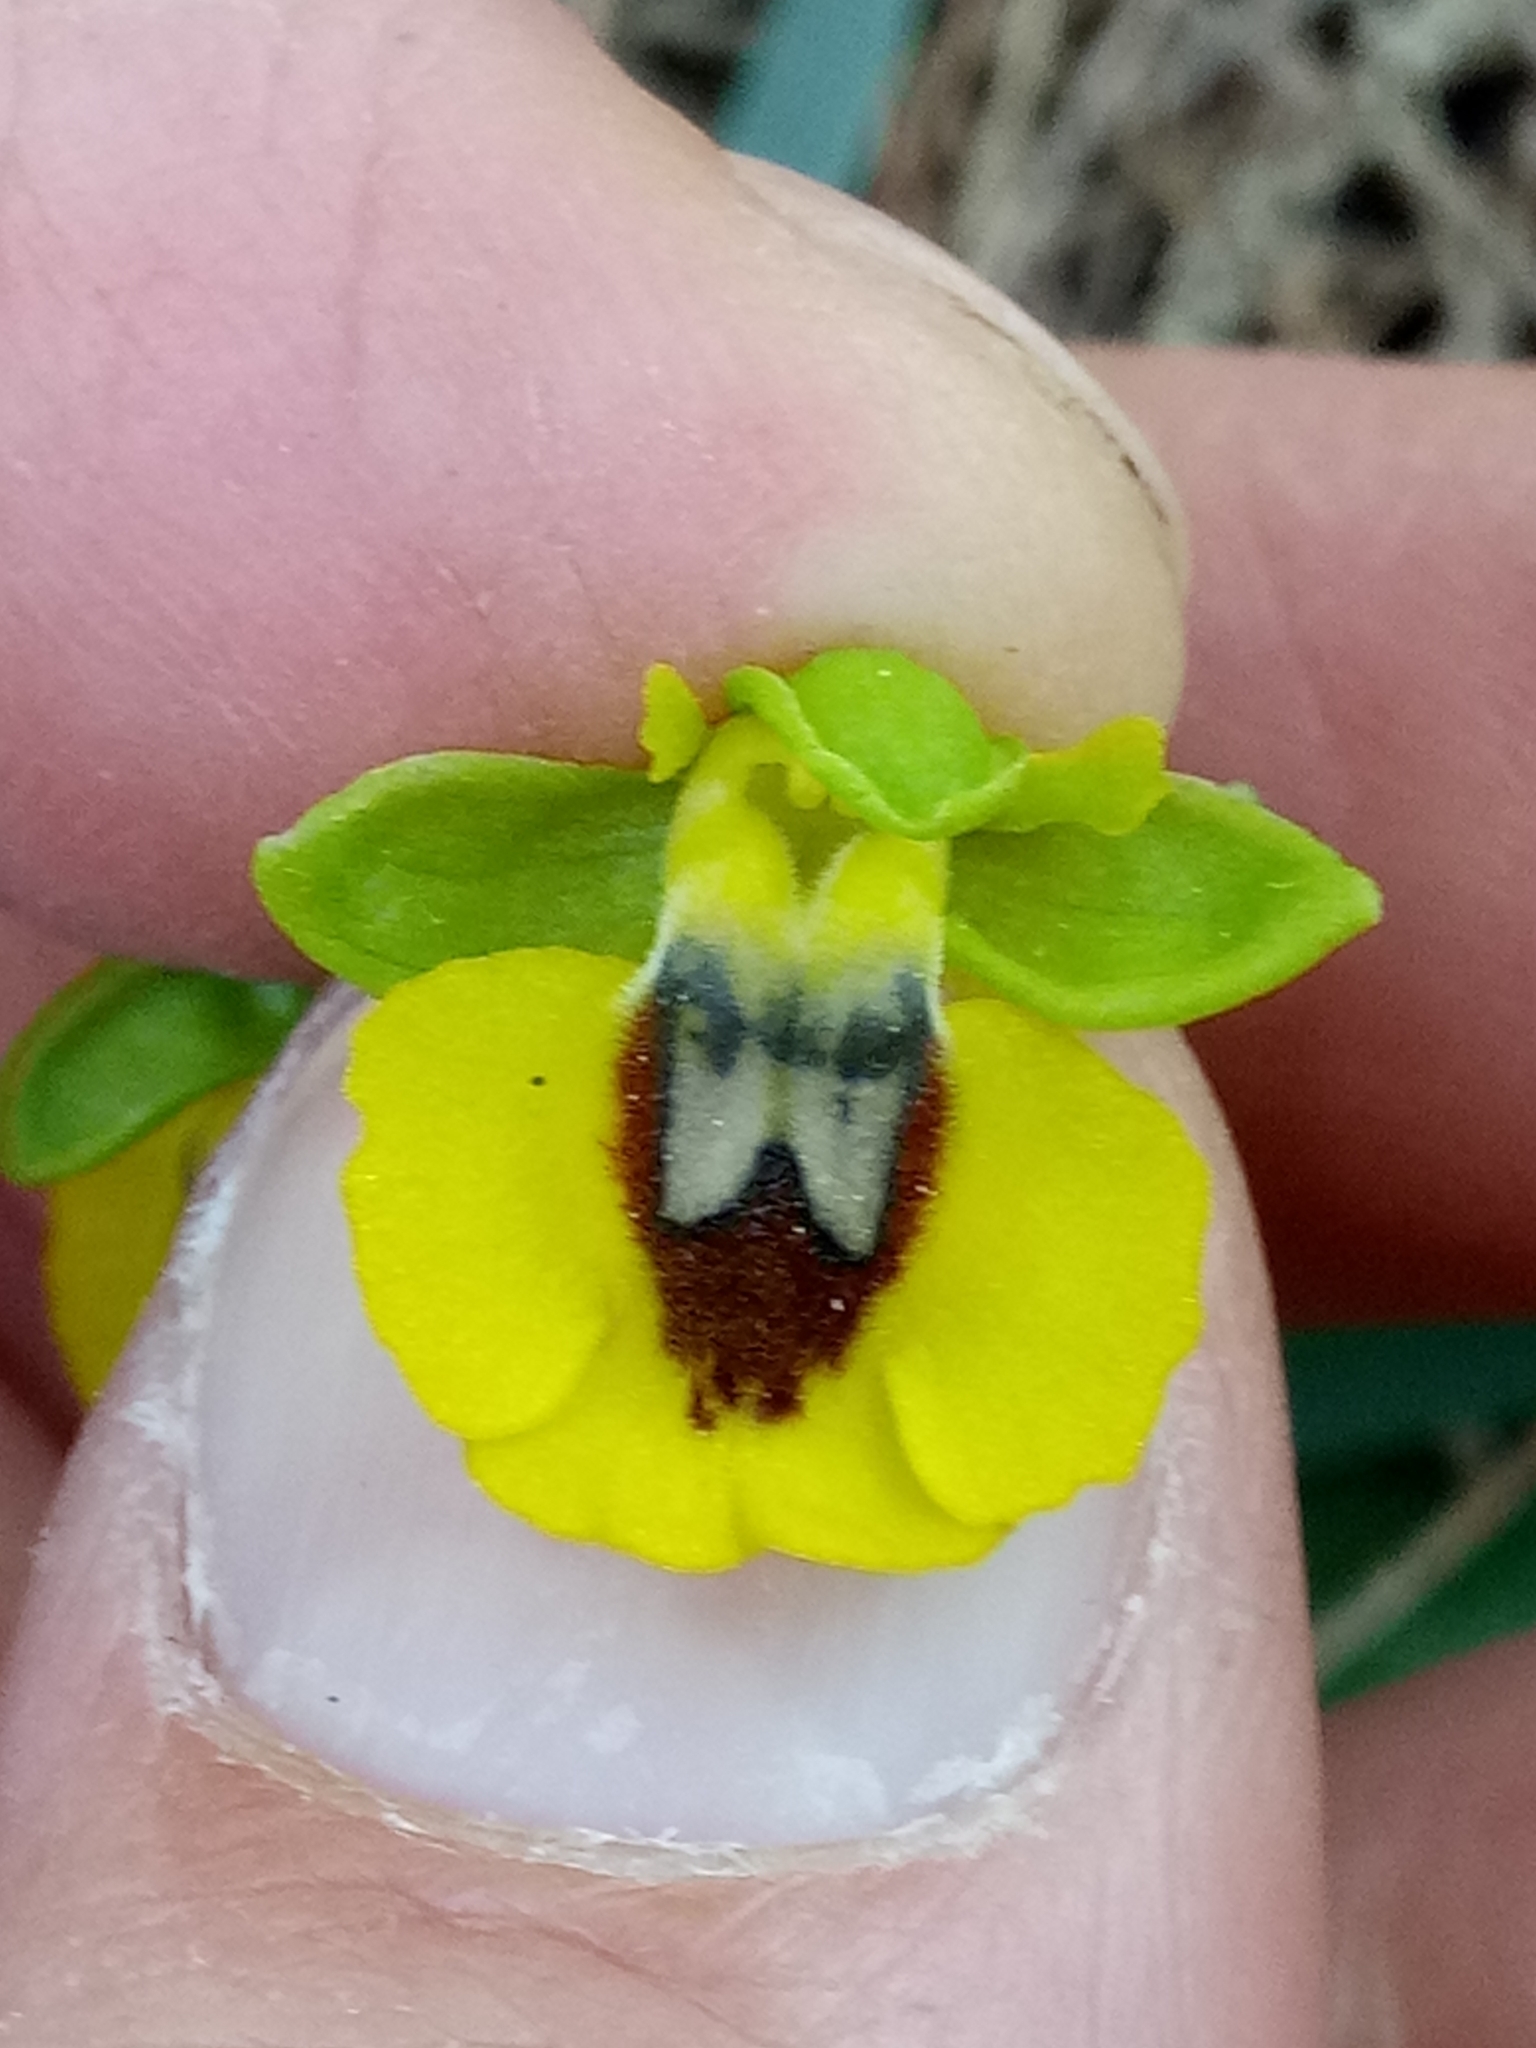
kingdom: Plantae
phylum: Tracheophyta
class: Liliopsida
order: Asparagales
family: Orchidaceae
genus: Ophrys
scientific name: Ophrys lutea
